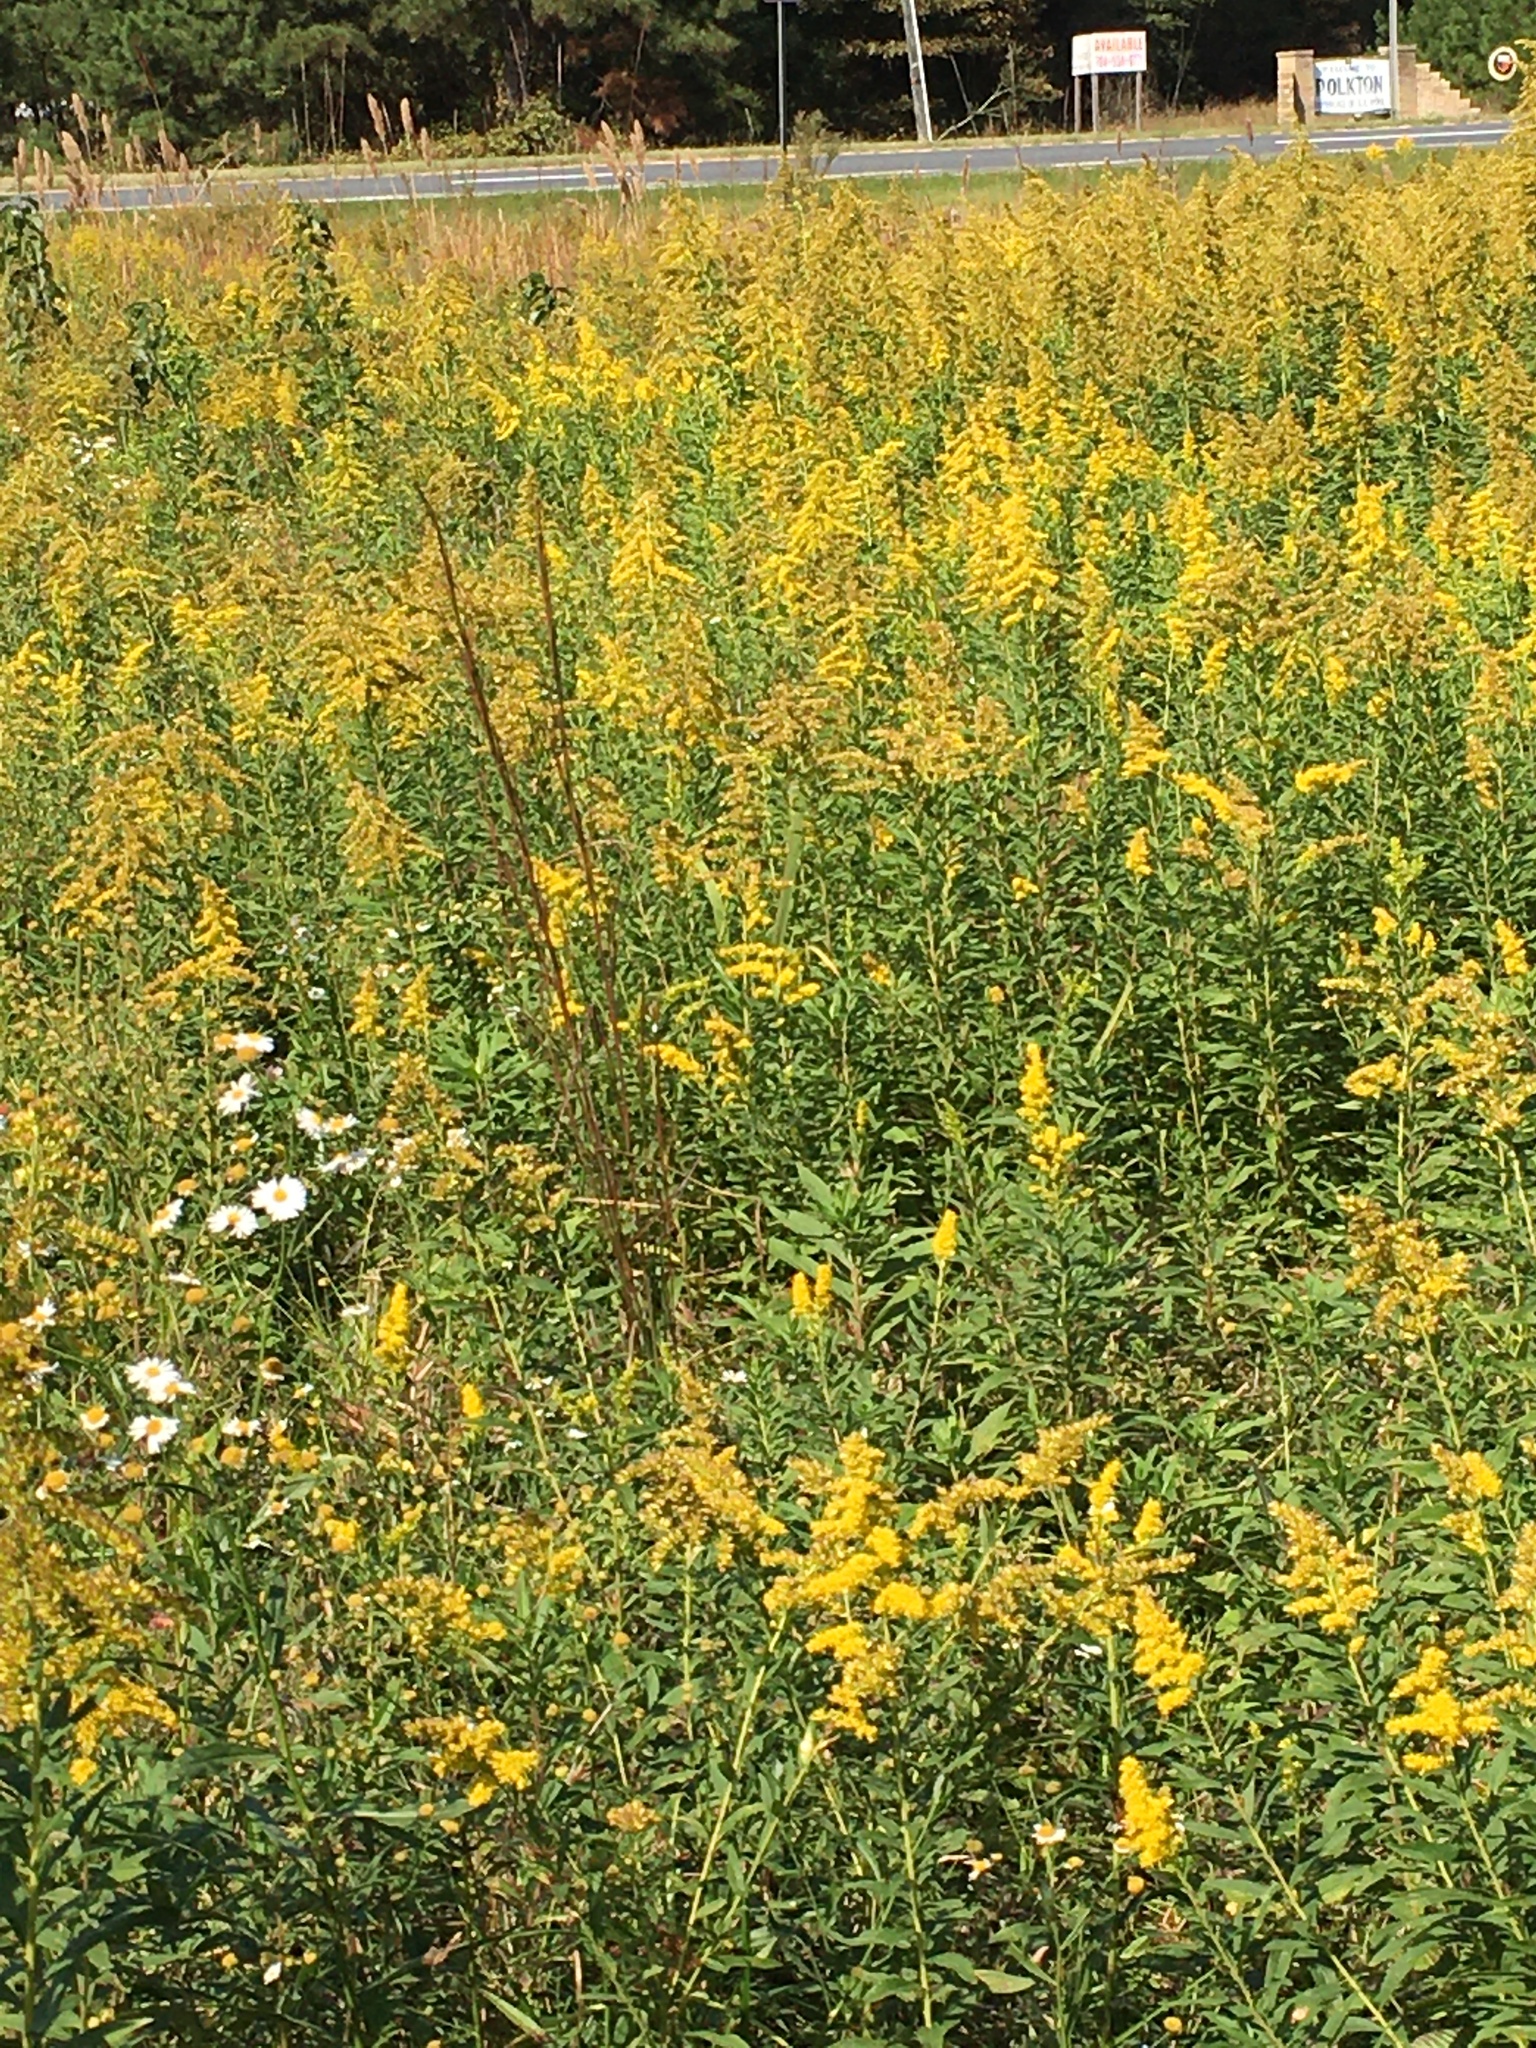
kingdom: Plantae
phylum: Tracheophyta
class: Magnoliopsida
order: Asterales
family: Asteraceae
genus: Solidago
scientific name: Solidago altissima
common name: Late goldenrod
